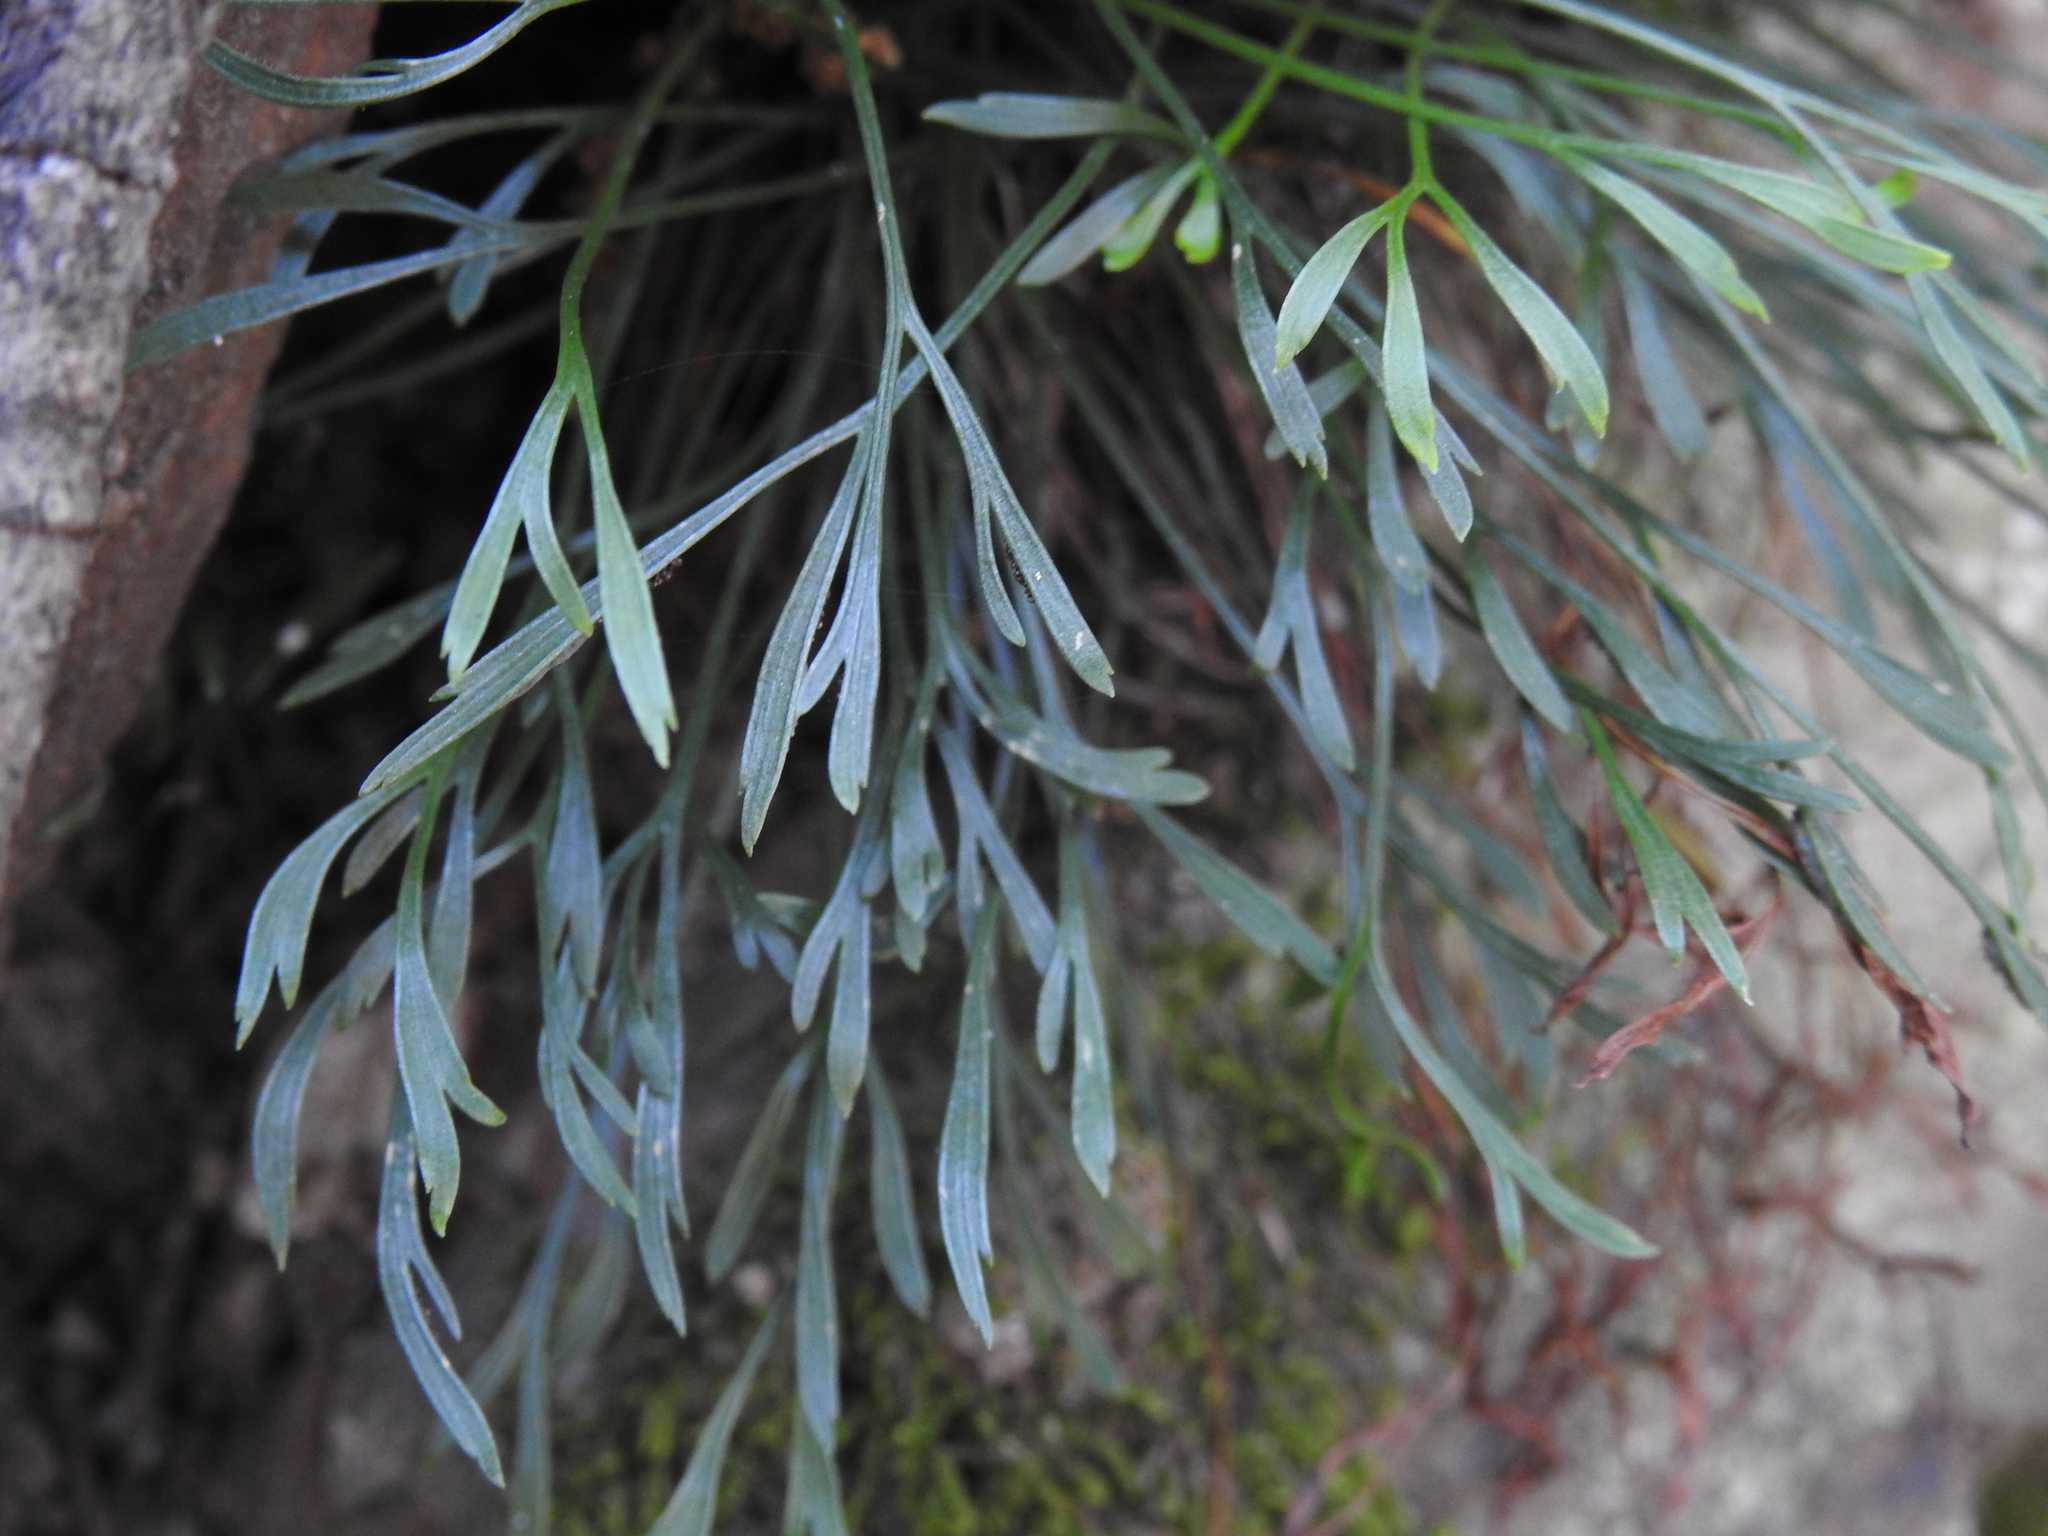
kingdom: Plantae
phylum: Tracheophyta
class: Polypodiopsida
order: Polypodiales
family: Aspleniaceae
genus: Asplenium
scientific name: Asplenium septentrionale
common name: Forked spleenwort
